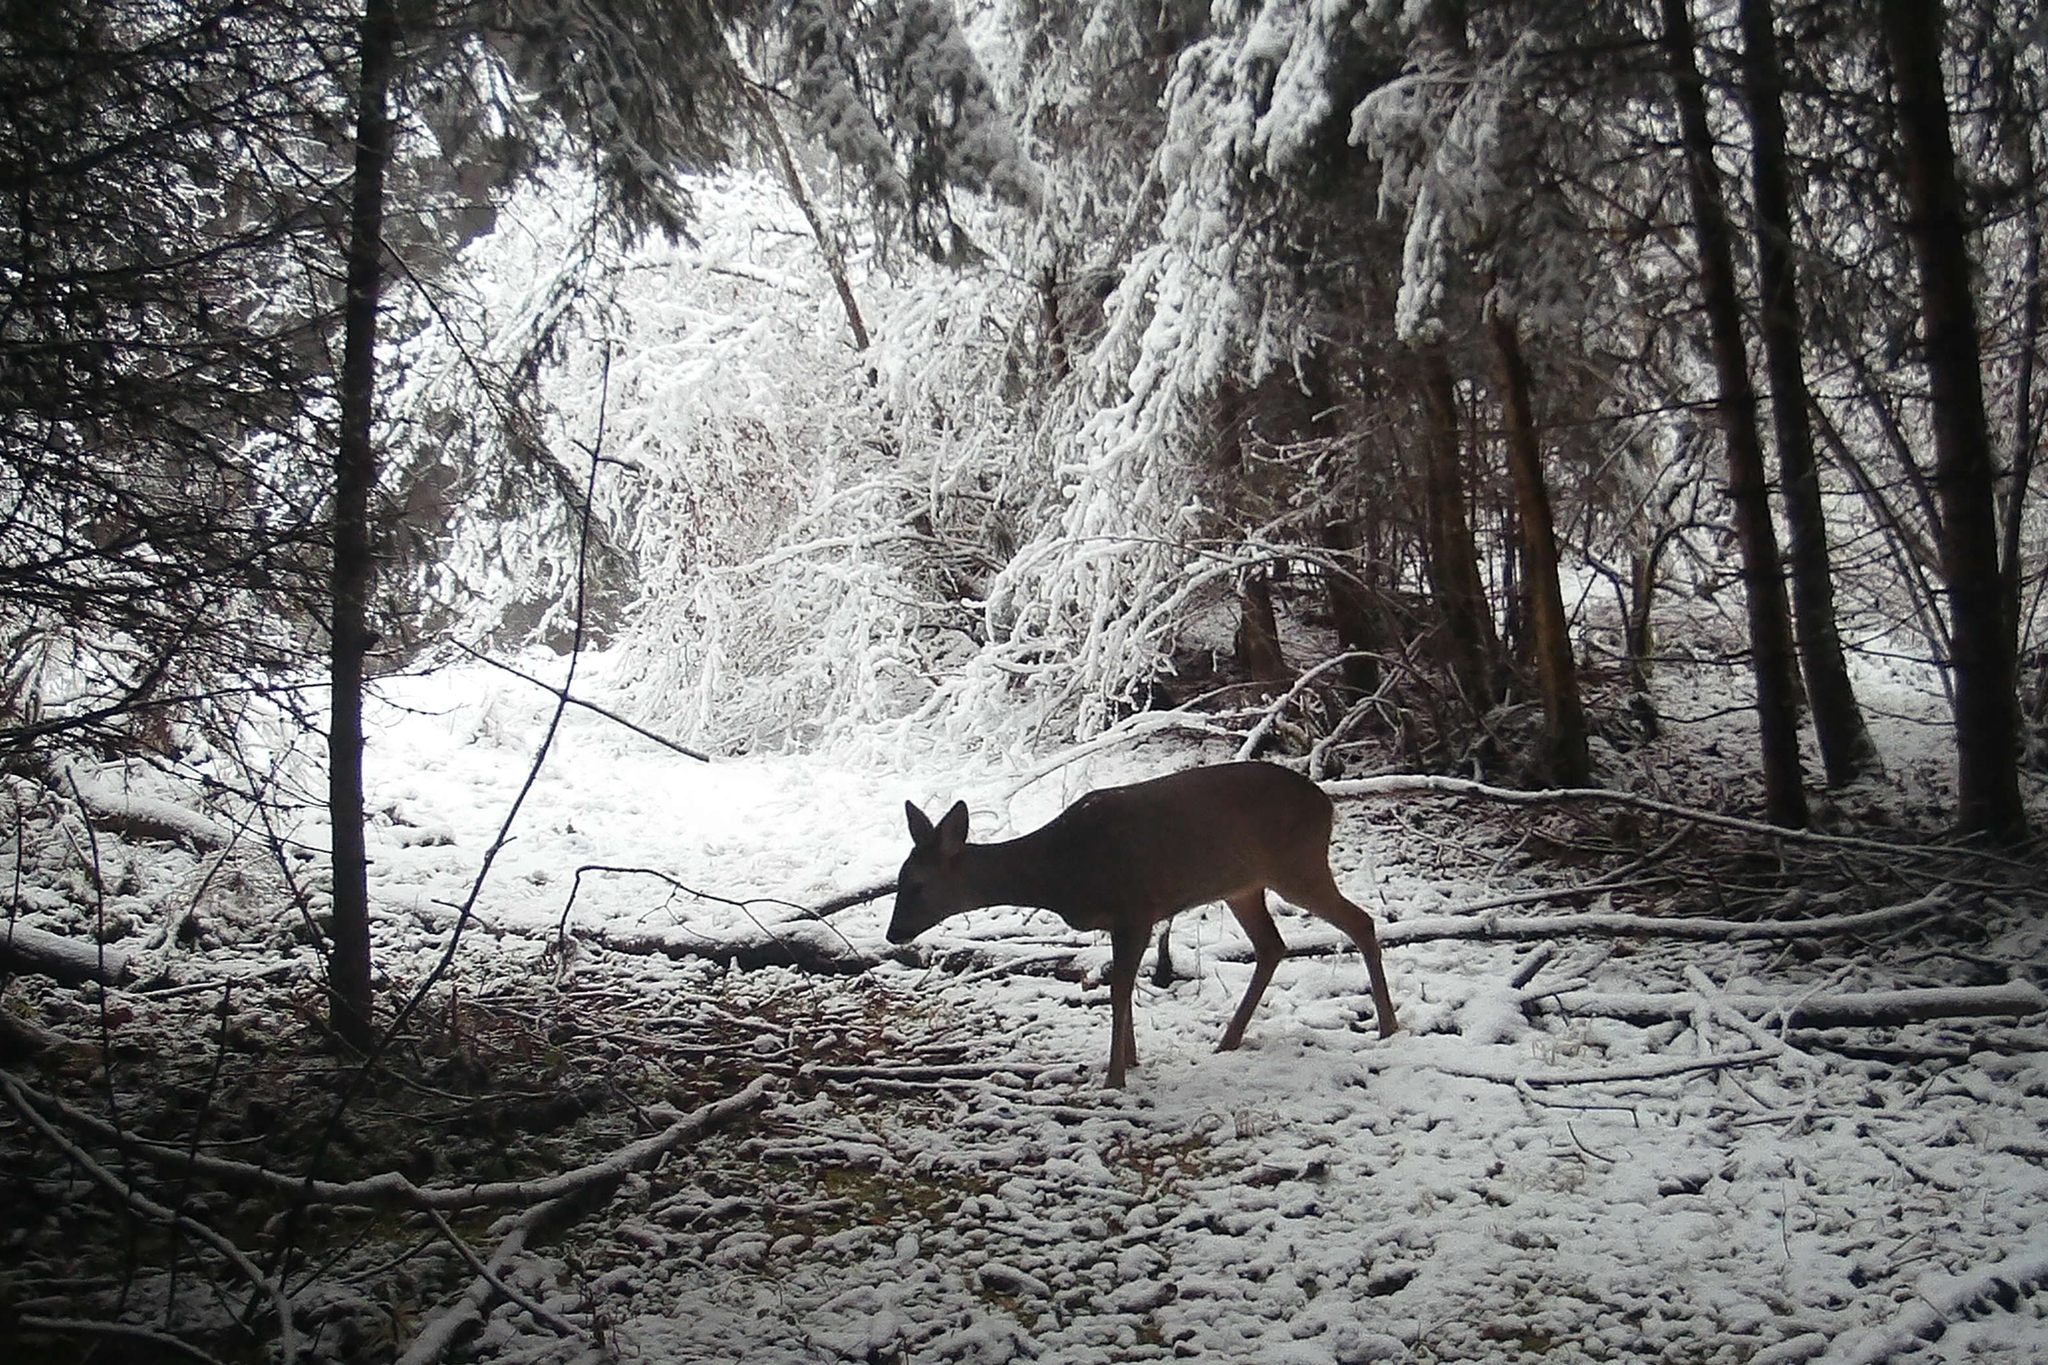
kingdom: Animalia
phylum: Chordata
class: Mammalia
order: Artiodactyla
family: Cervidae
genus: Capreolus
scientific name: Capreolus capreolus
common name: Western roe deer
